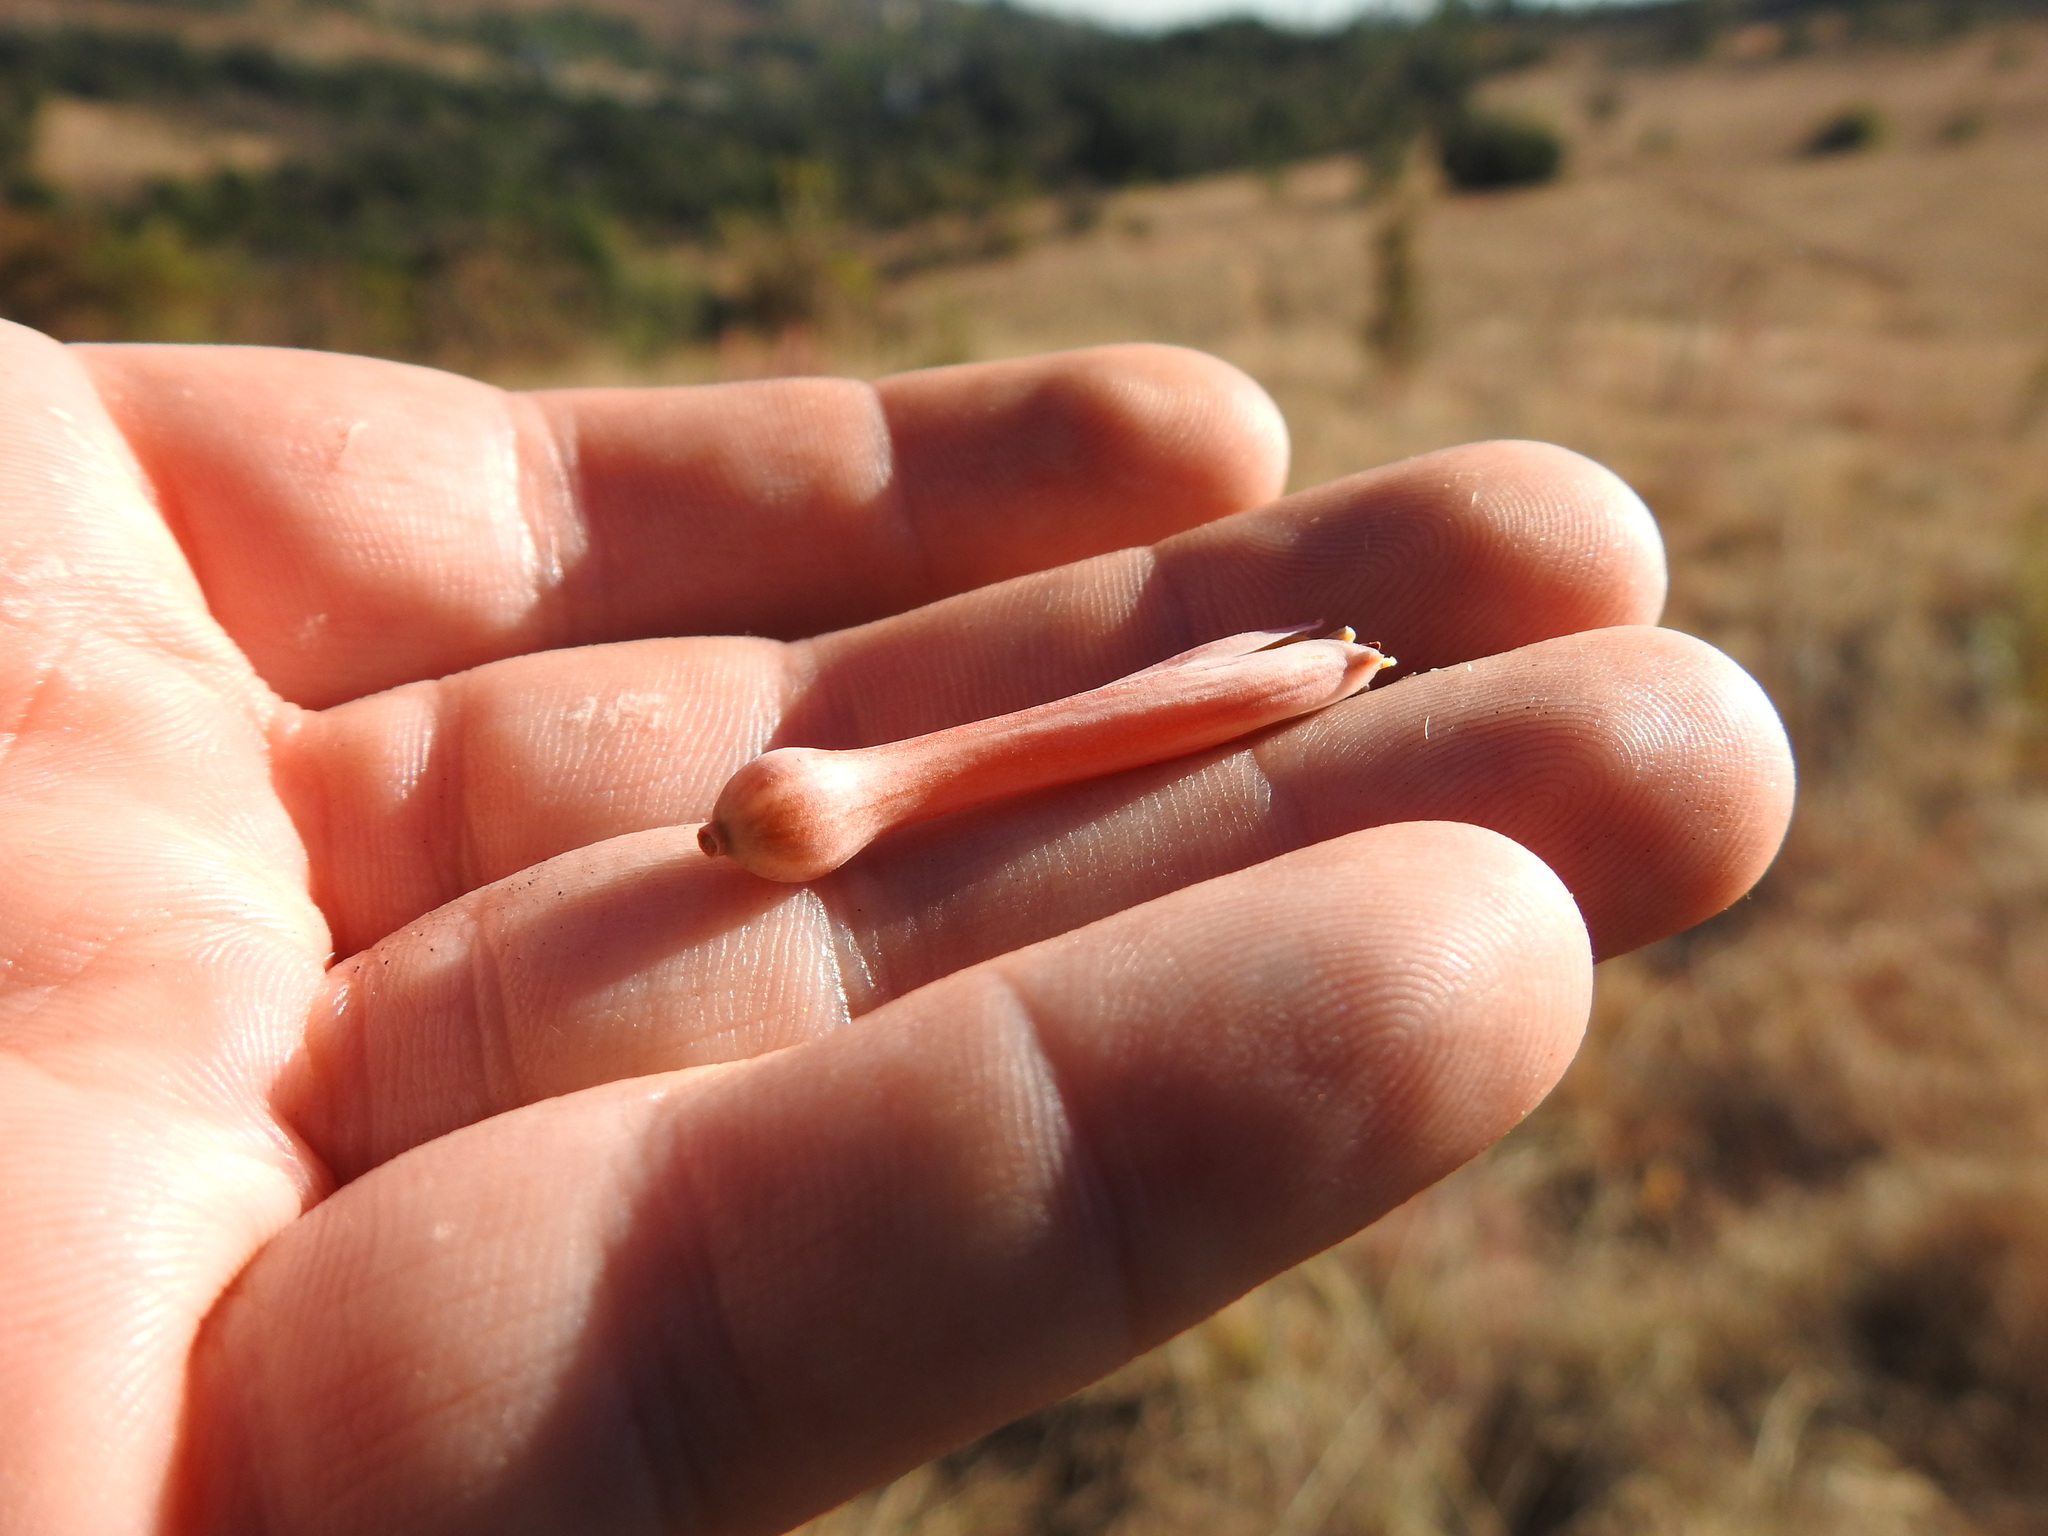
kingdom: Plantae
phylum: Tracheophyta
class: Liliopsida
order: Asparagales
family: Asphodelaceae
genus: Aloe
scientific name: Aloe greatheadii
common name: Greathead's aloe
